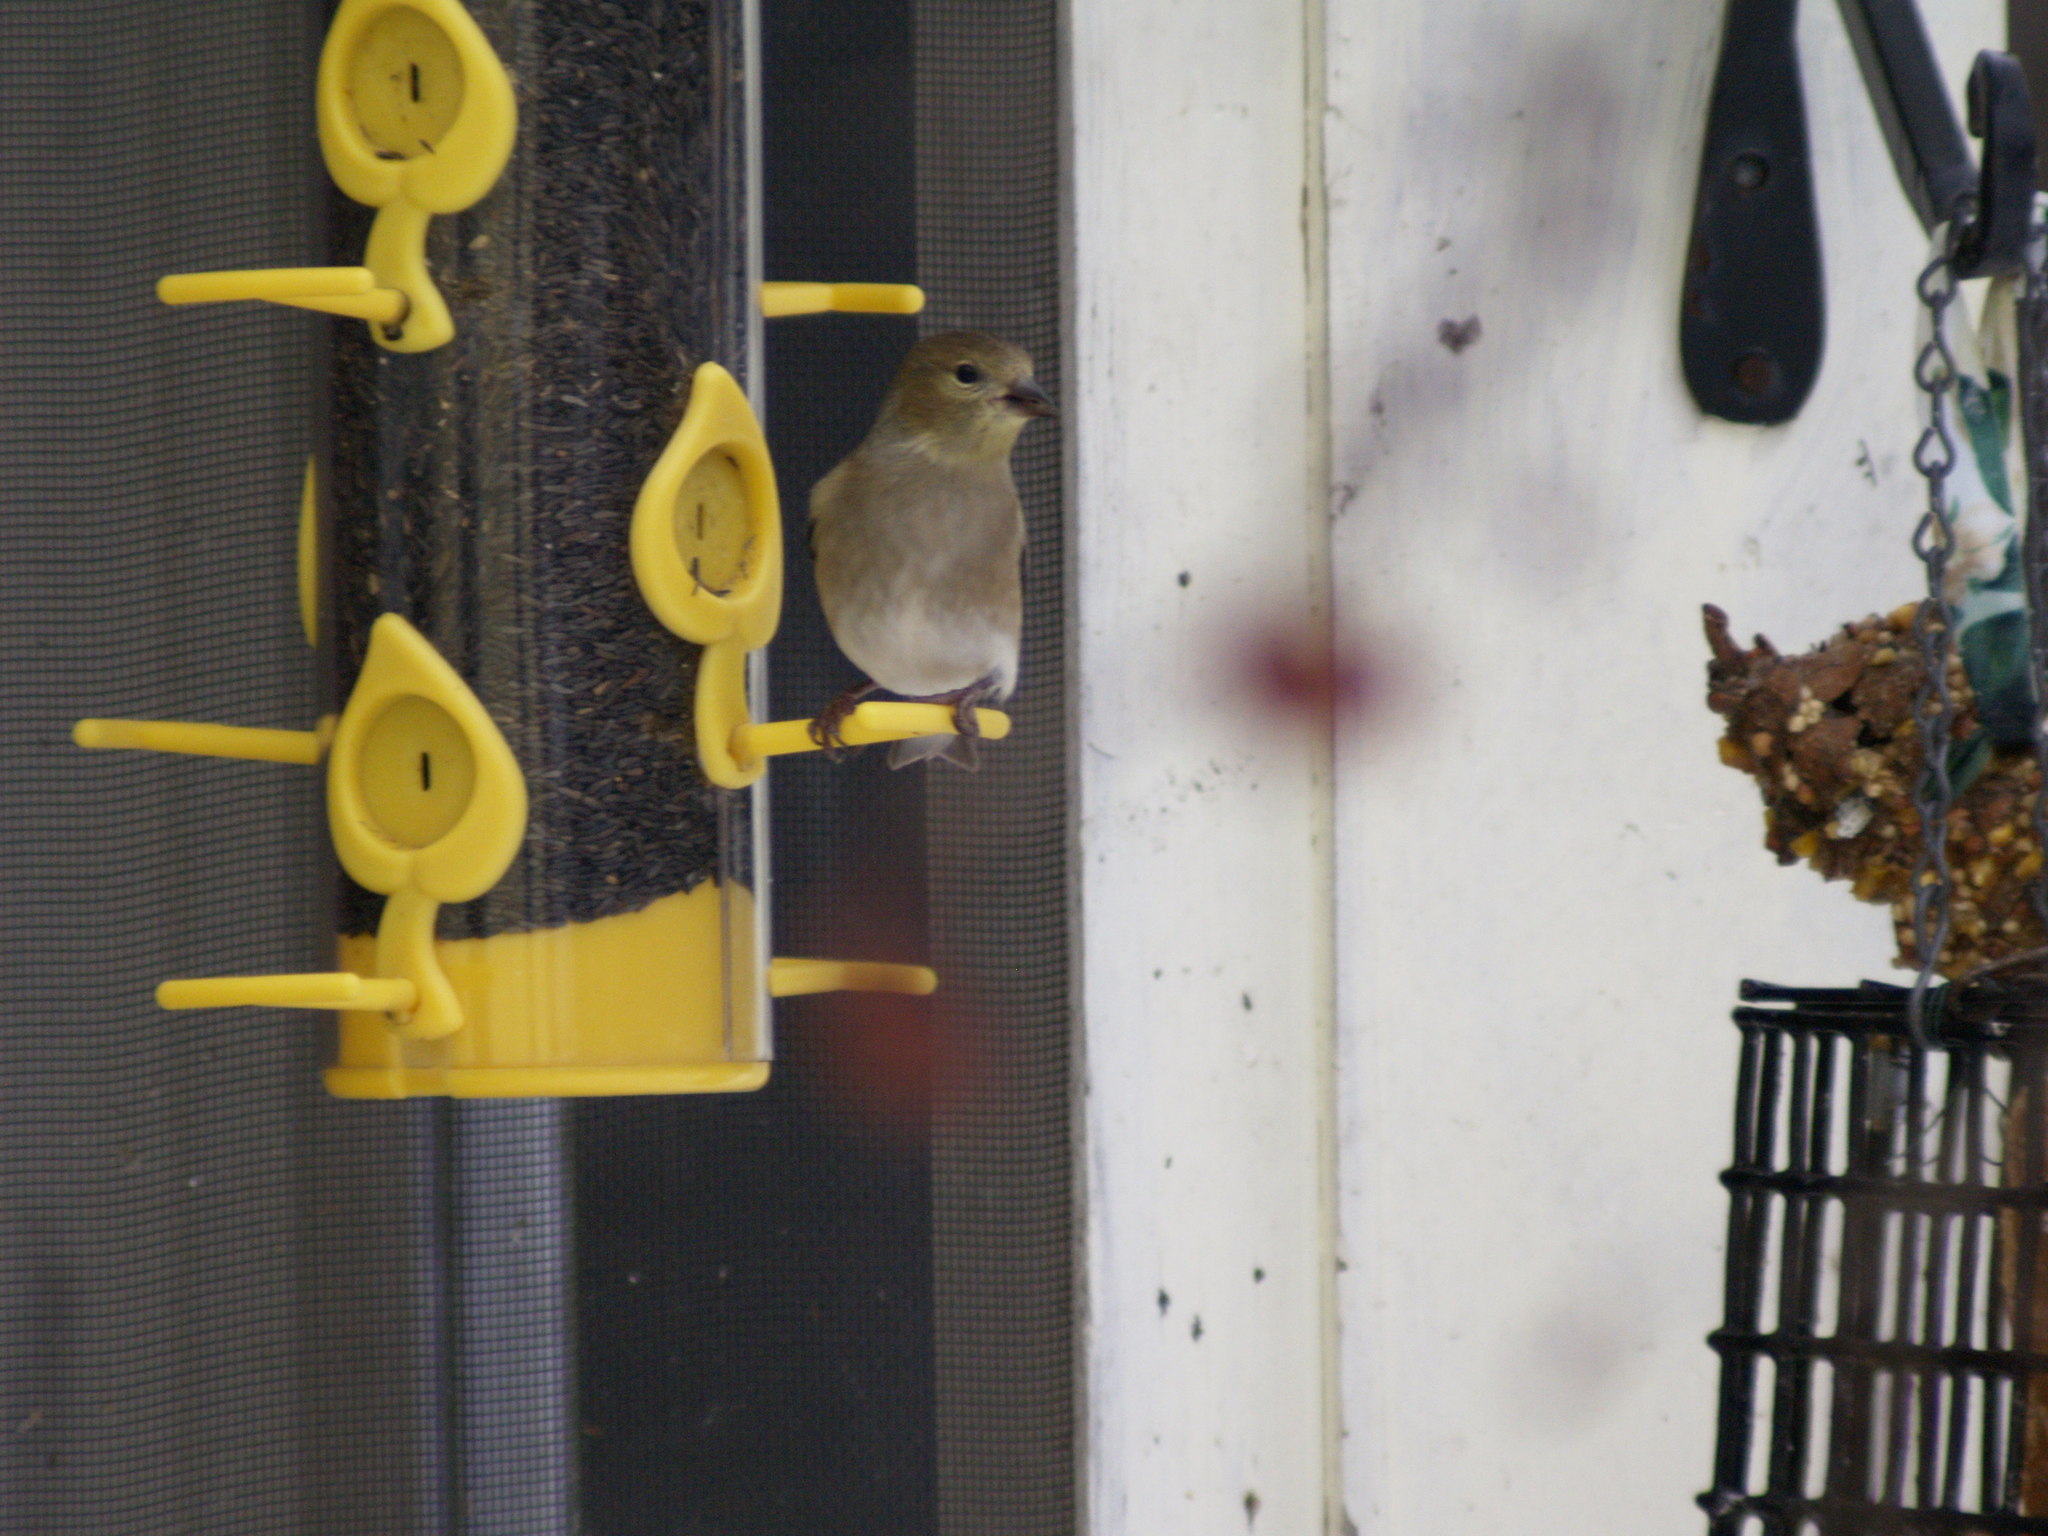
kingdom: Animalia
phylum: Chordata
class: Aves
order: Passeriformes
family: Fringillidae
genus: Spinus
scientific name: Spinus tristis
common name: American goldfinch
